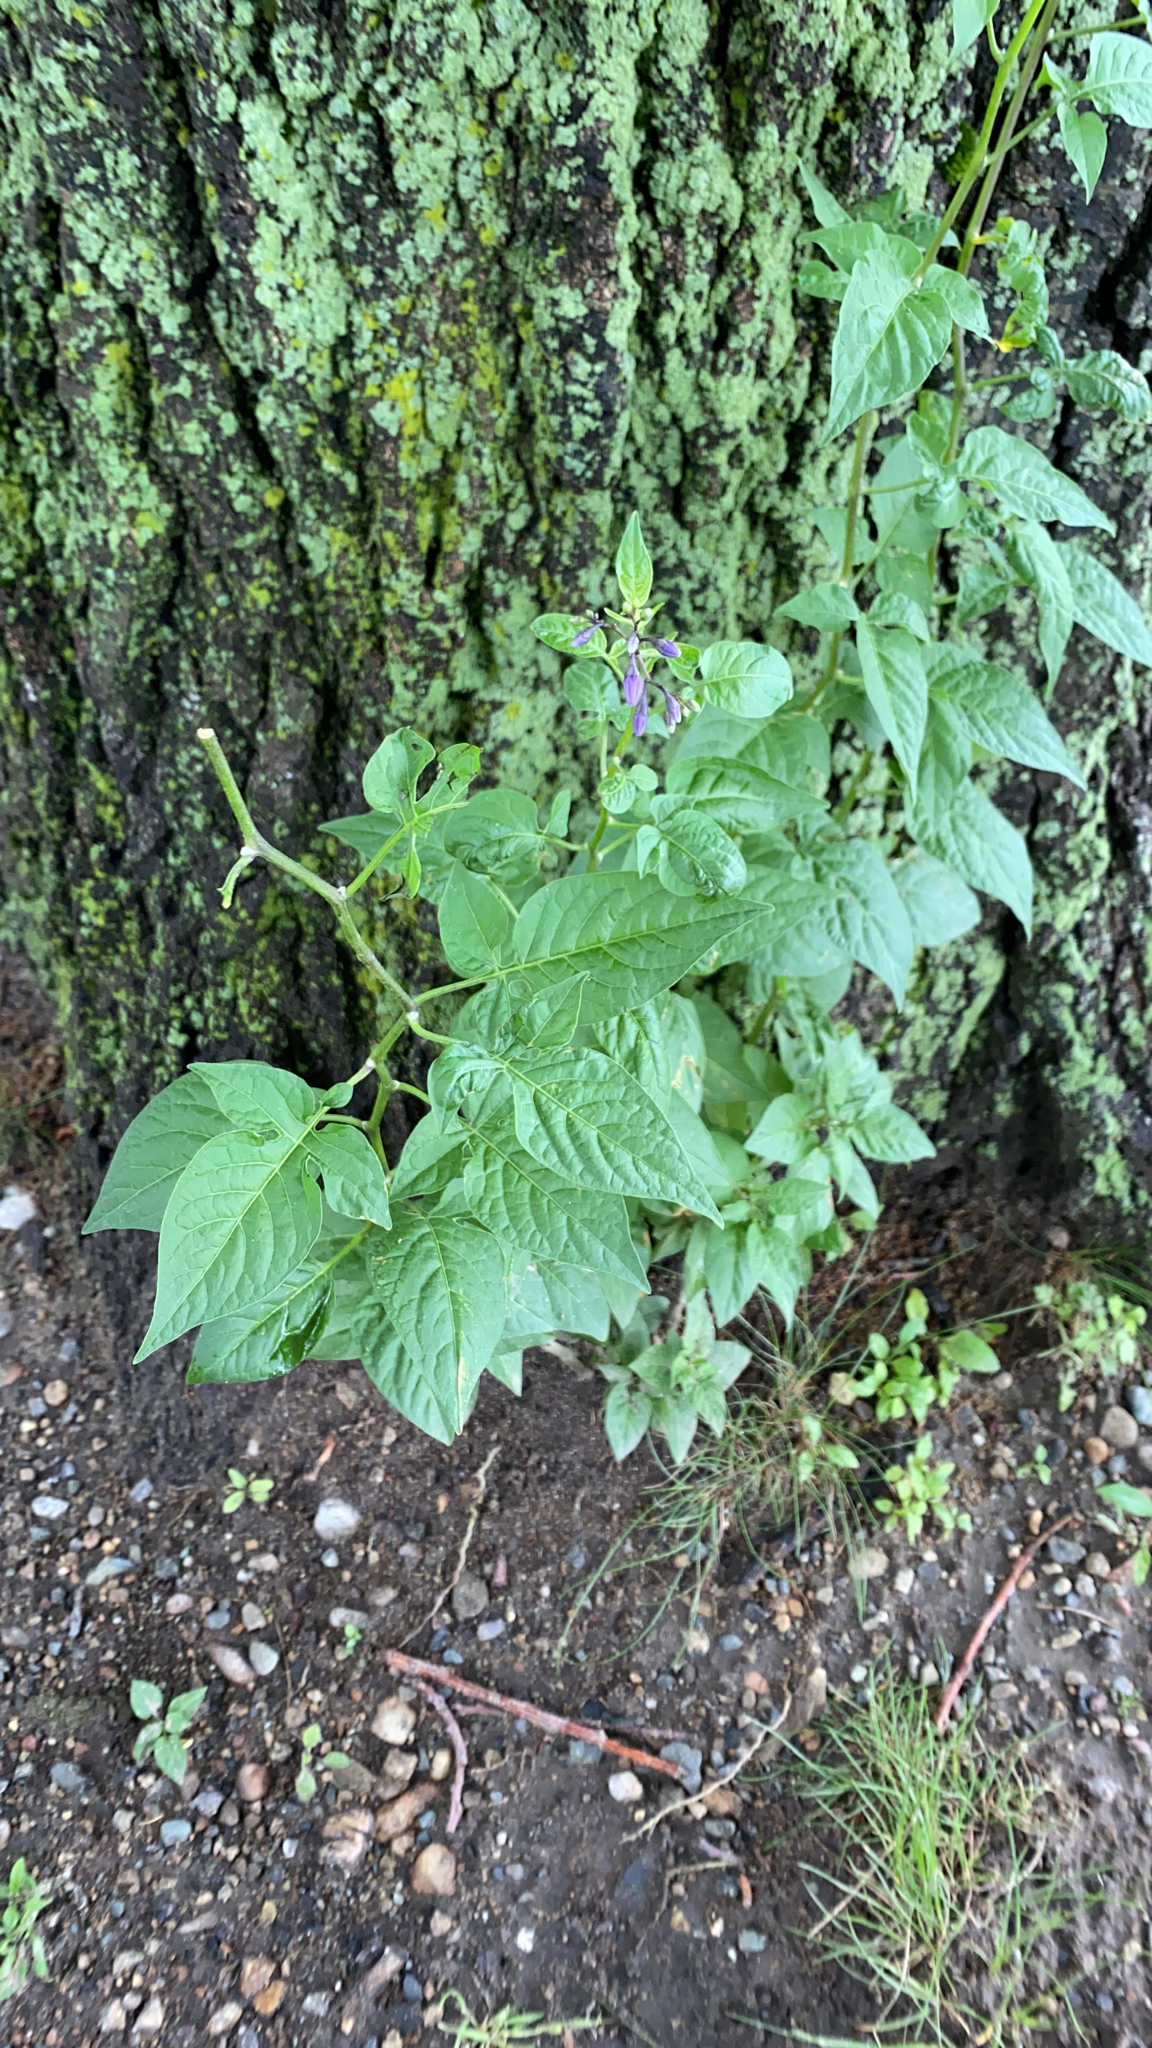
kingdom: Plantae
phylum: Tracheophyta
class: Magnoliopsida
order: Solanales
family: Solanaceae
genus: Solanum
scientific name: Solanum dulcamara
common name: Climbing nightshade
